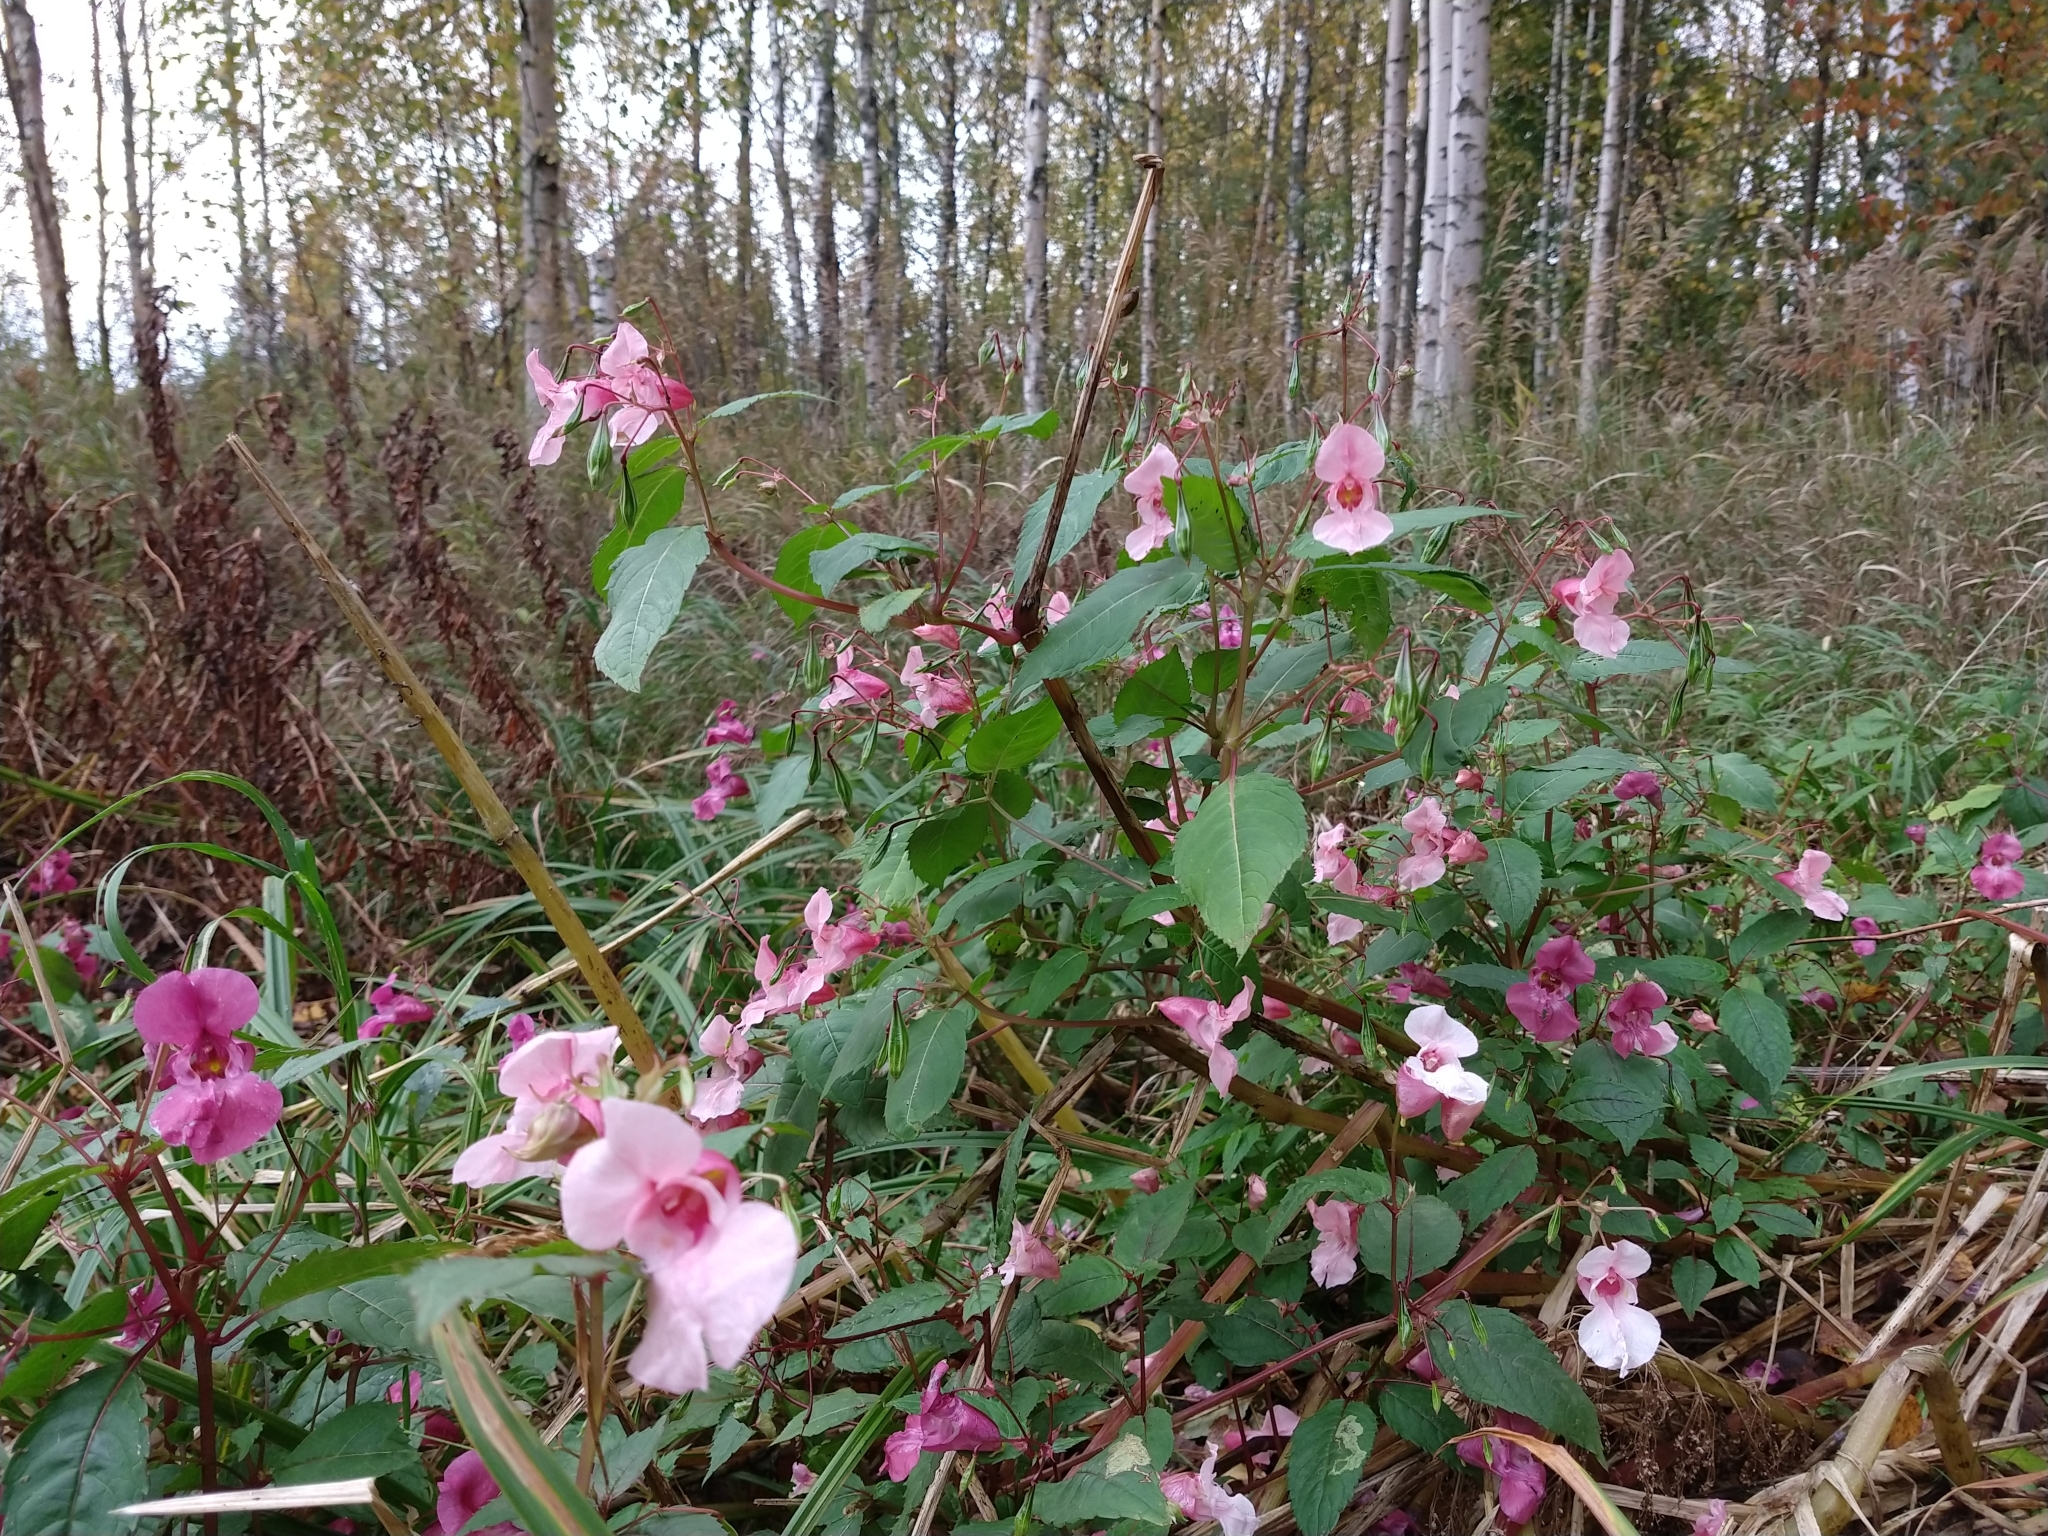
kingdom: Plantae
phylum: Tracheophyta
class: Magnoliopsida
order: Ericales
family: Balsaminaceae
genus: Impatiens
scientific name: Impatiens glandulifera
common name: Himalayan balsam
